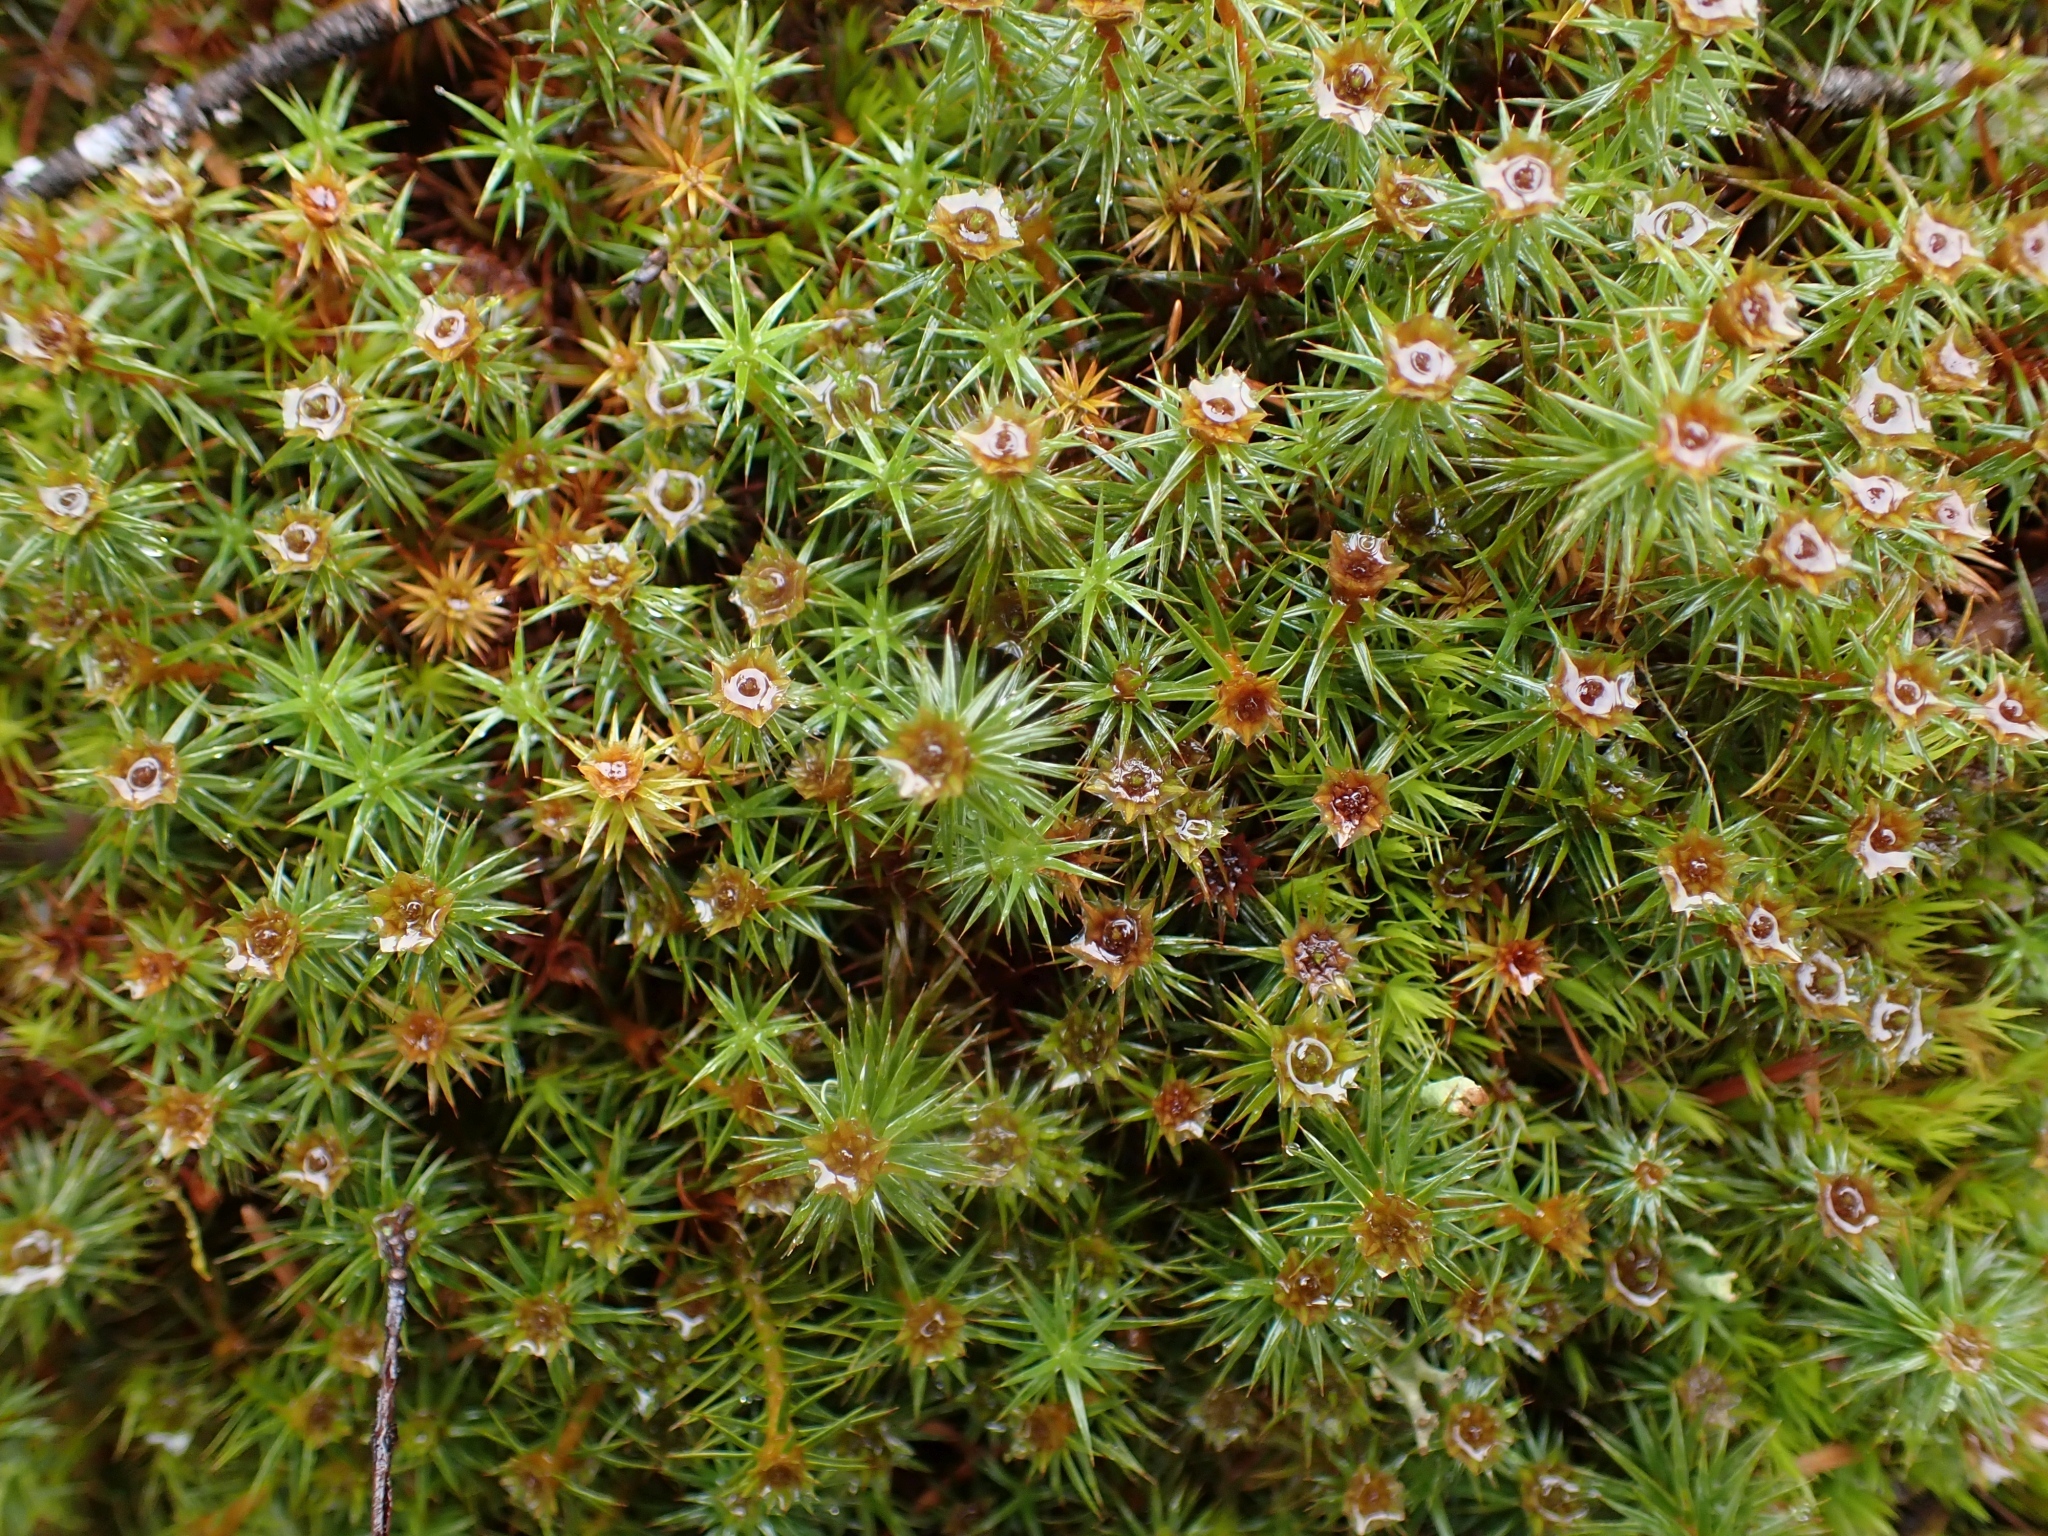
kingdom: Plantae
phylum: Bryophyta
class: Polytrichopsida
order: Polytrichales
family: Polytrichaceae
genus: Polytrichum
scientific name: Polytrichum juniperinum
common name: Juniper haircap moss
